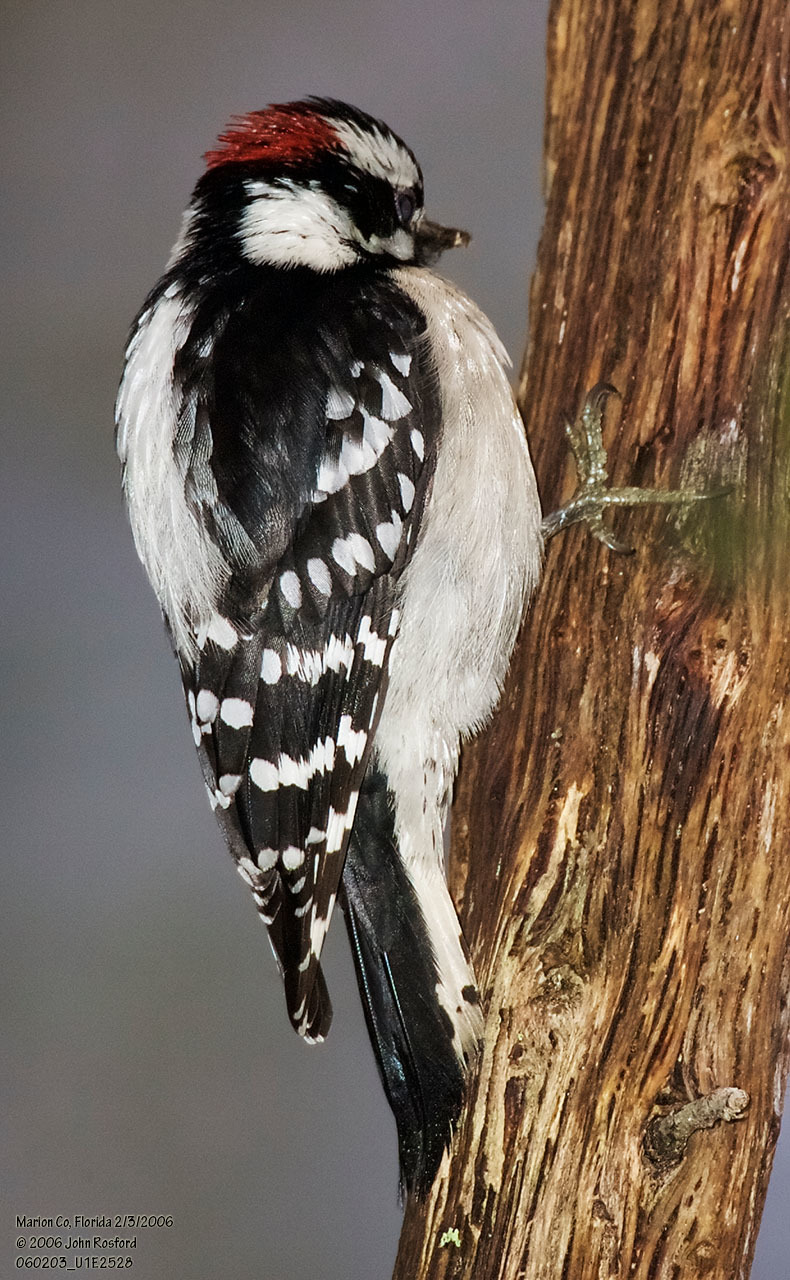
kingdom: Animalia
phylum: Chordata
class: Aves
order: Piciformes
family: Picidae
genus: Dryobates
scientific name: Dryobates pubescens
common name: Downy woodpecker
